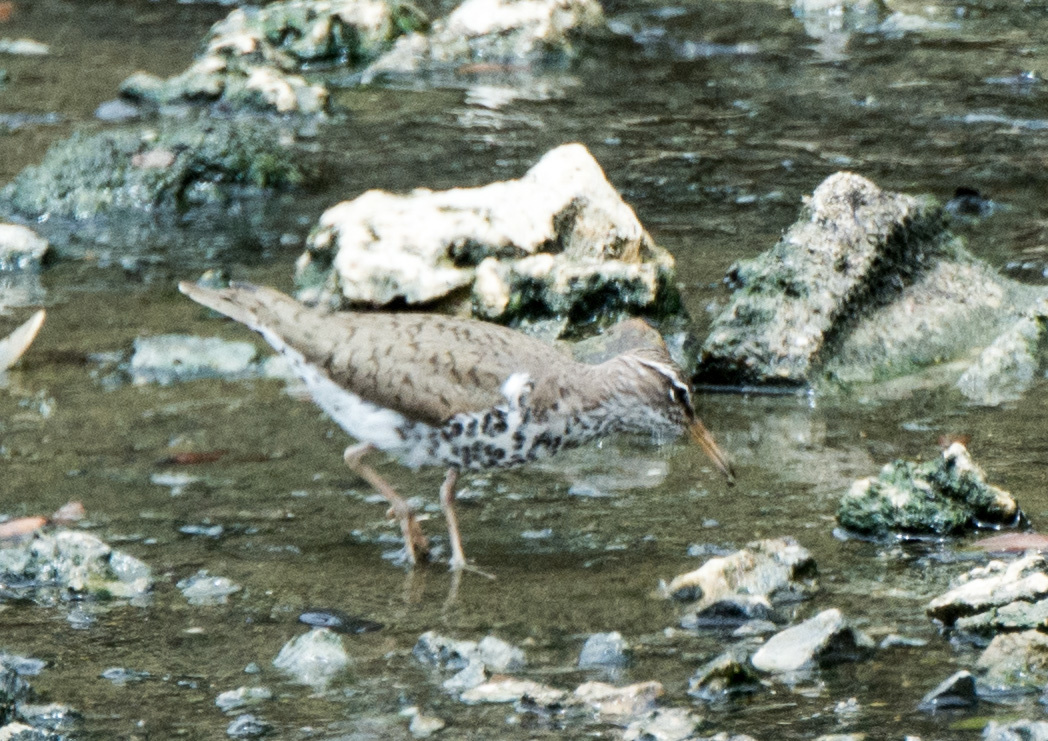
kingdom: Animalia
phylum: Chordata
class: Aves
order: Charadriiformes
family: Scolopacidae
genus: Actitis
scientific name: Actitis macularius
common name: Spotted sandpiper
